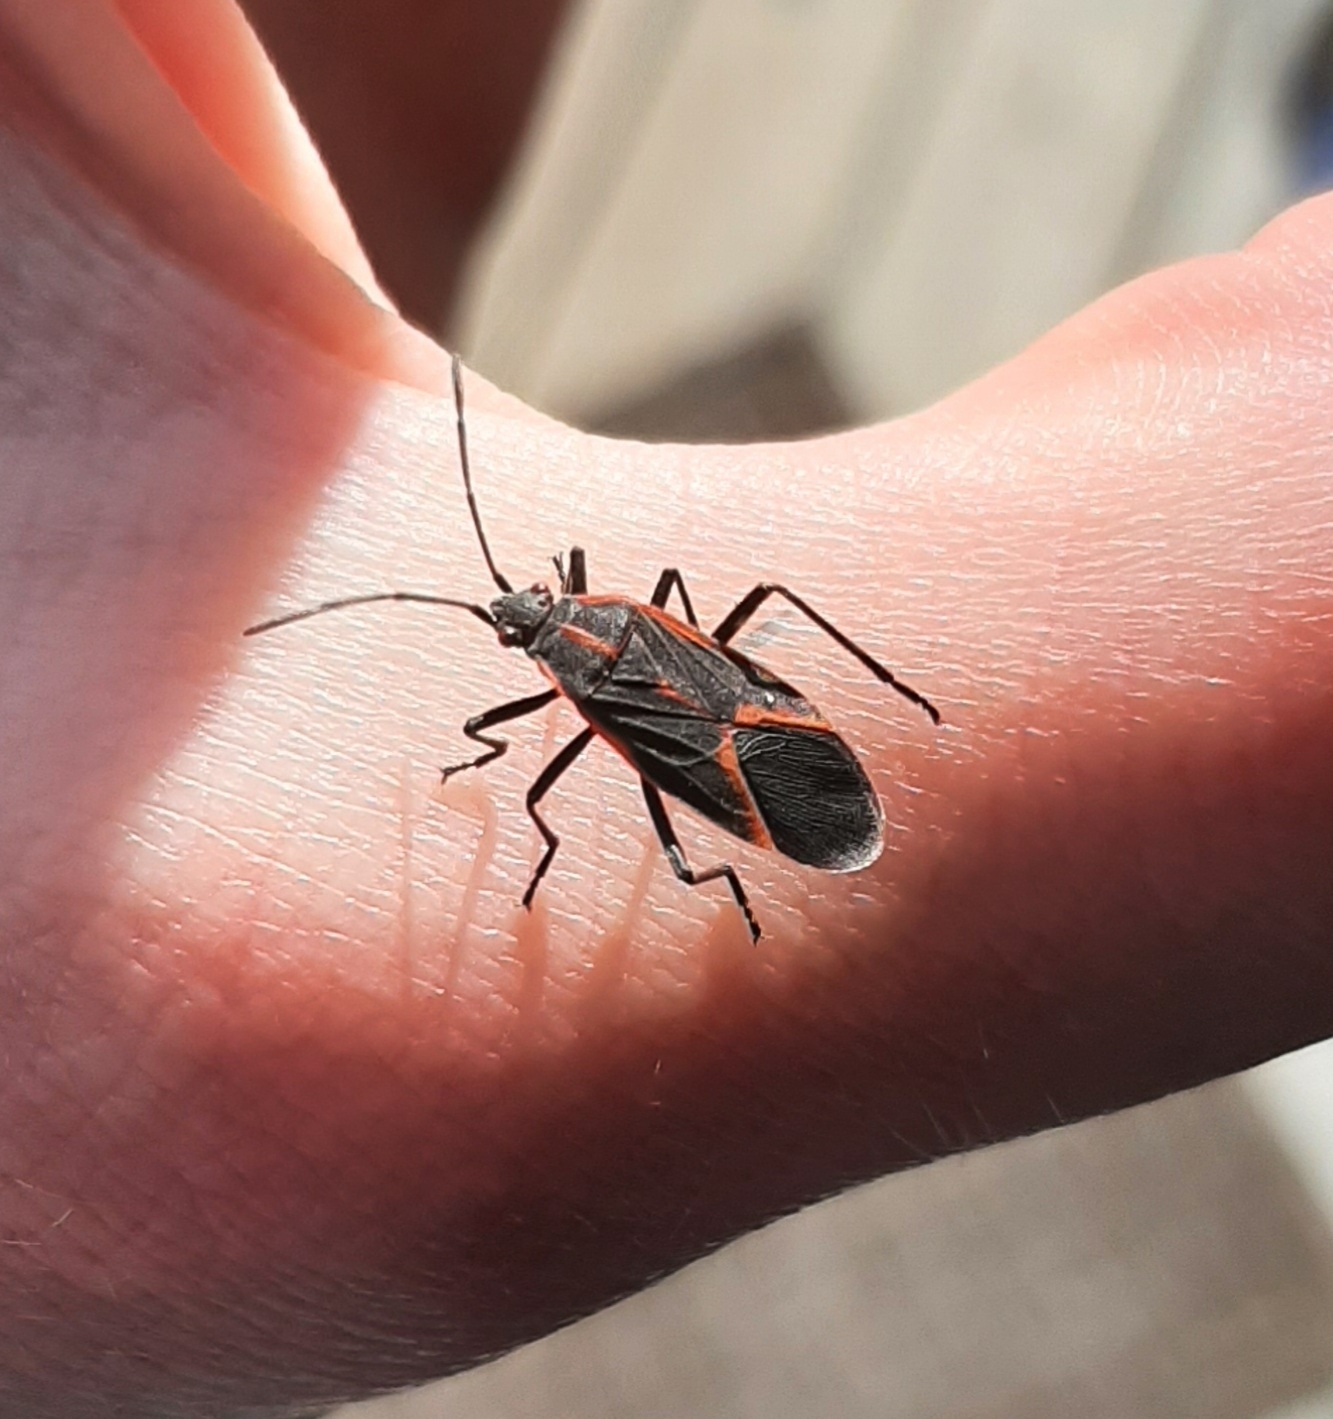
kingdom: Animalia
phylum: Arthropoda
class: Insecta
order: Hemiptera
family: Rhopalidae
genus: Boisea
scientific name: Boisea trivittata
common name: Boxelder bug
